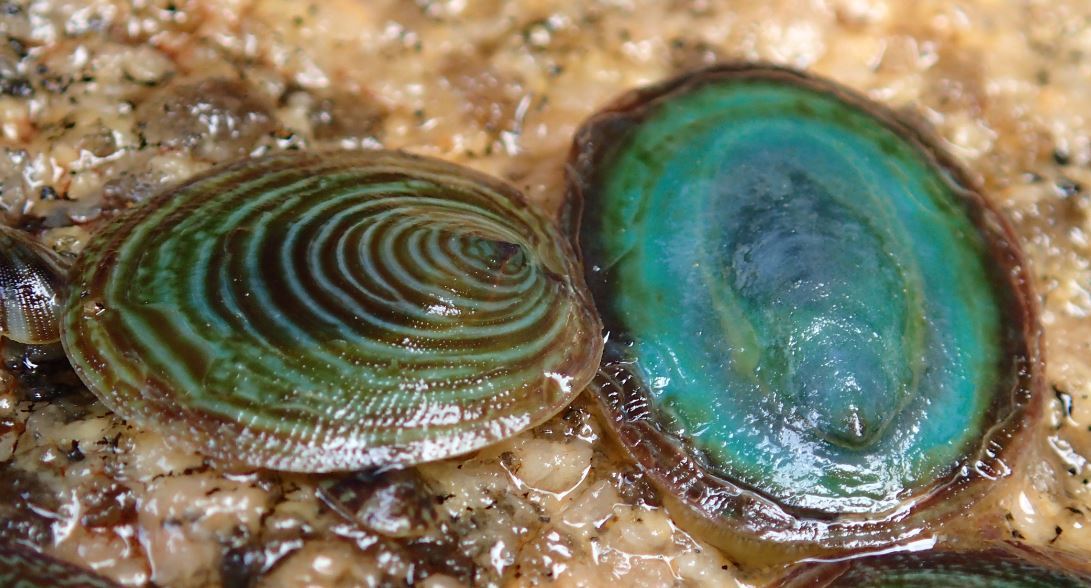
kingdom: Animalia
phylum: Mollusca
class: Gastropoda
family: Lottiidae
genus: Atalacmea
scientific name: Atalacmea fragilis
